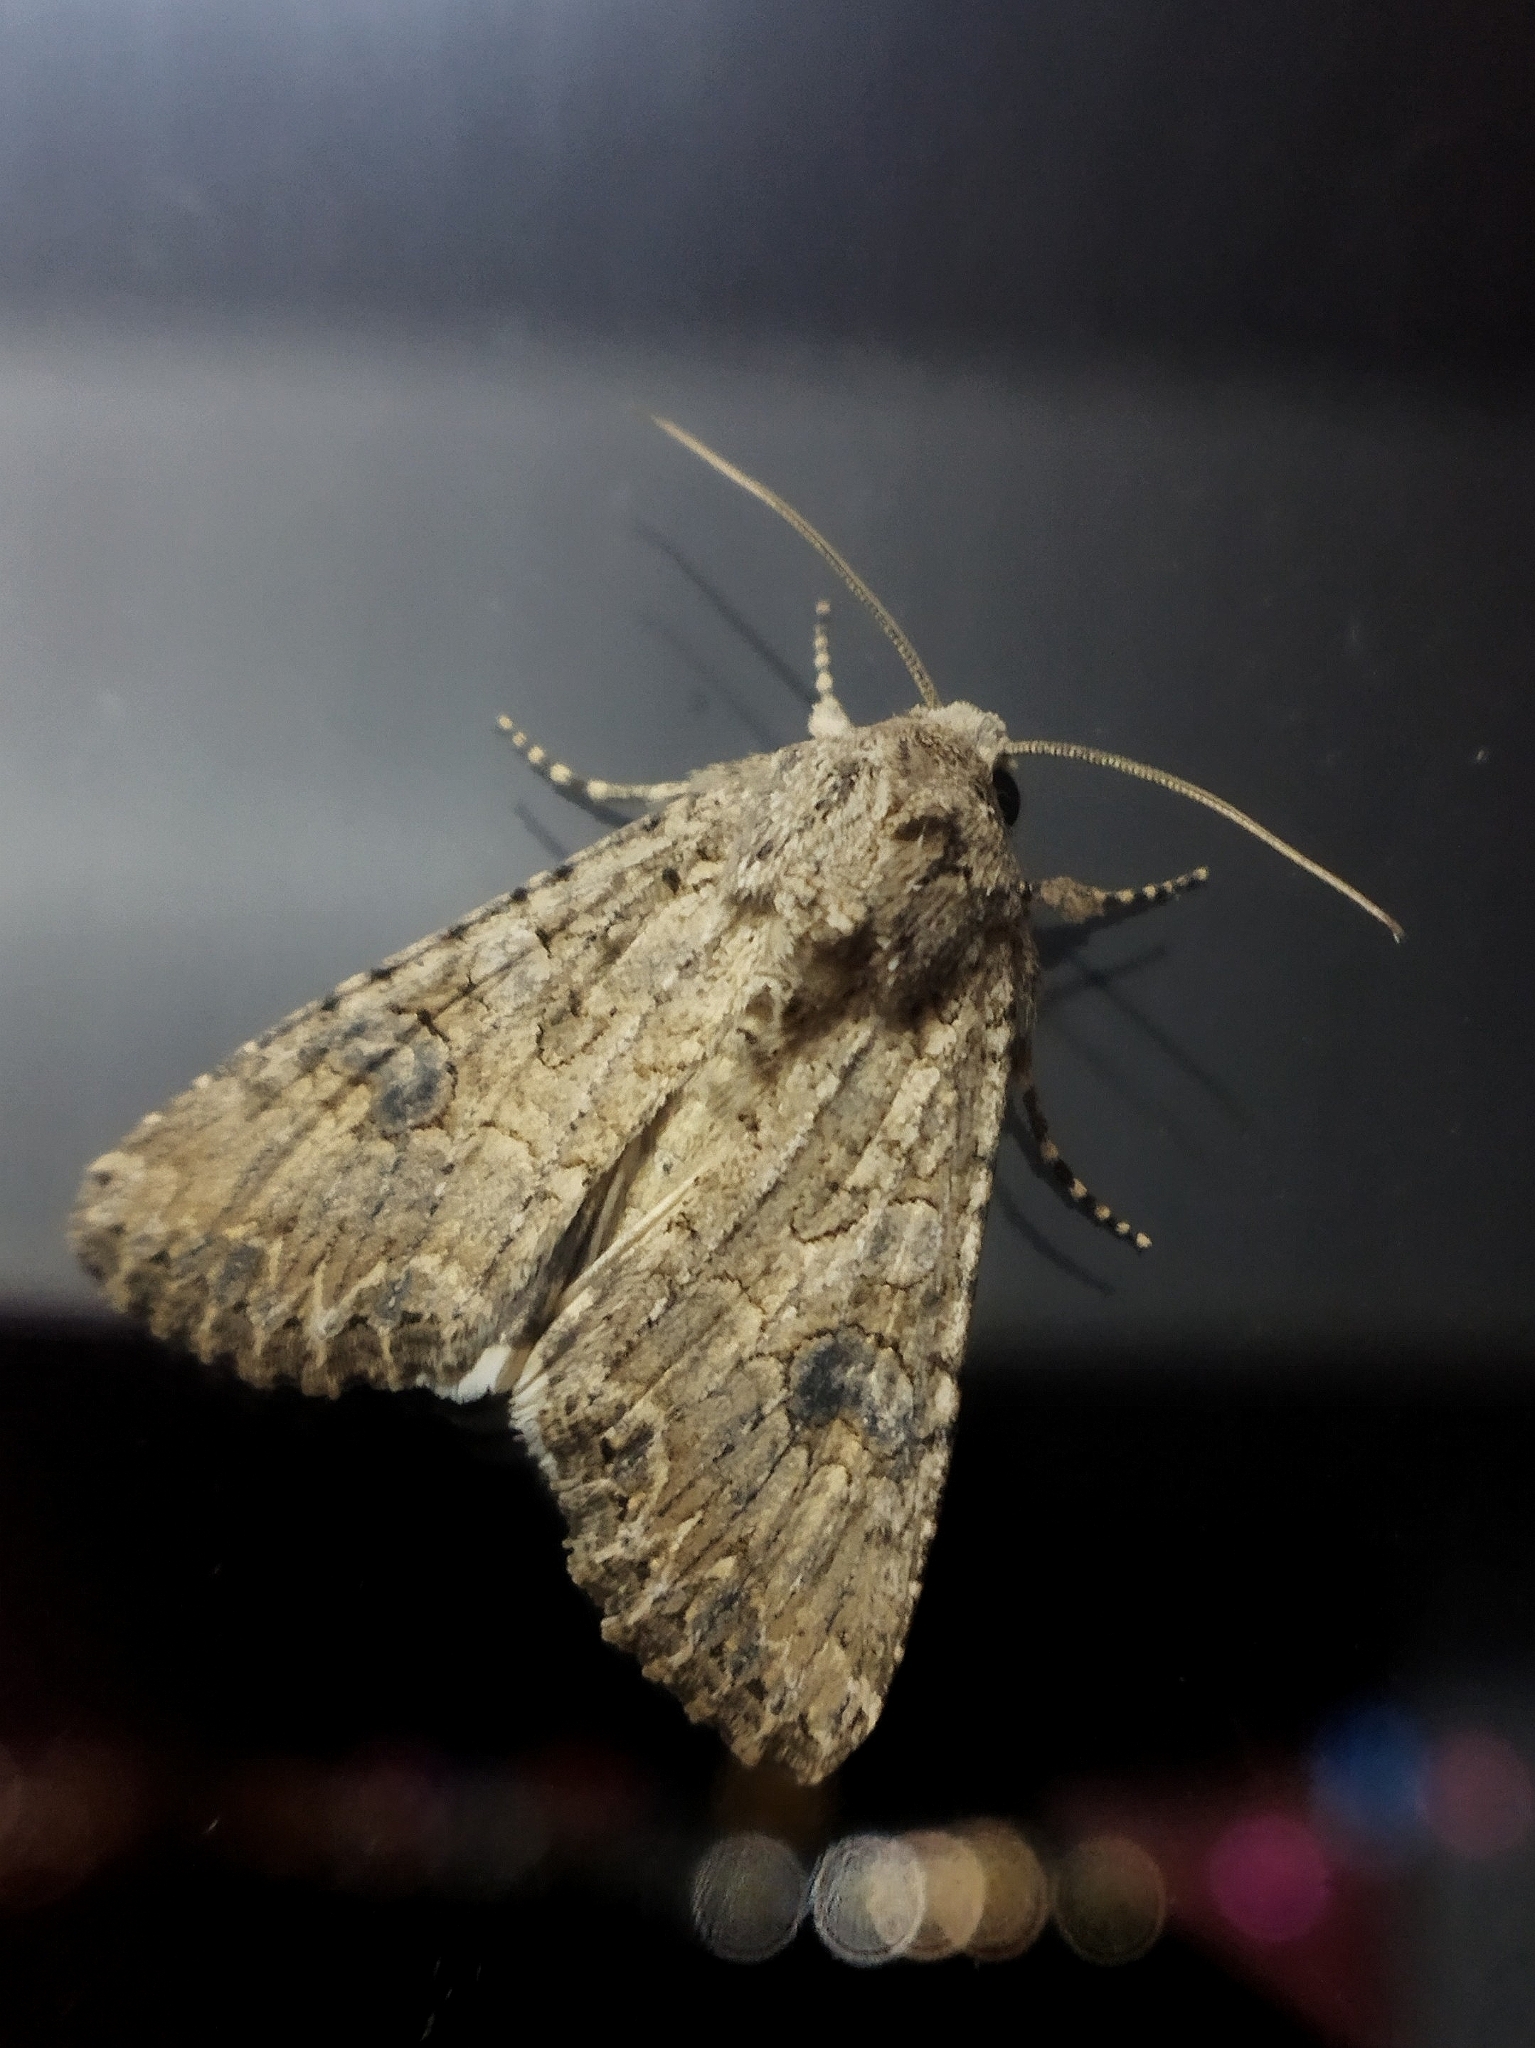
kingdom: Animalia
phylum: Arthropoda
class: Insecta
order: Lepidoptera
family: Noctuidae
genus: Anarta
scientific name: Anarta trifolii
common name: Clover cutworm moth
